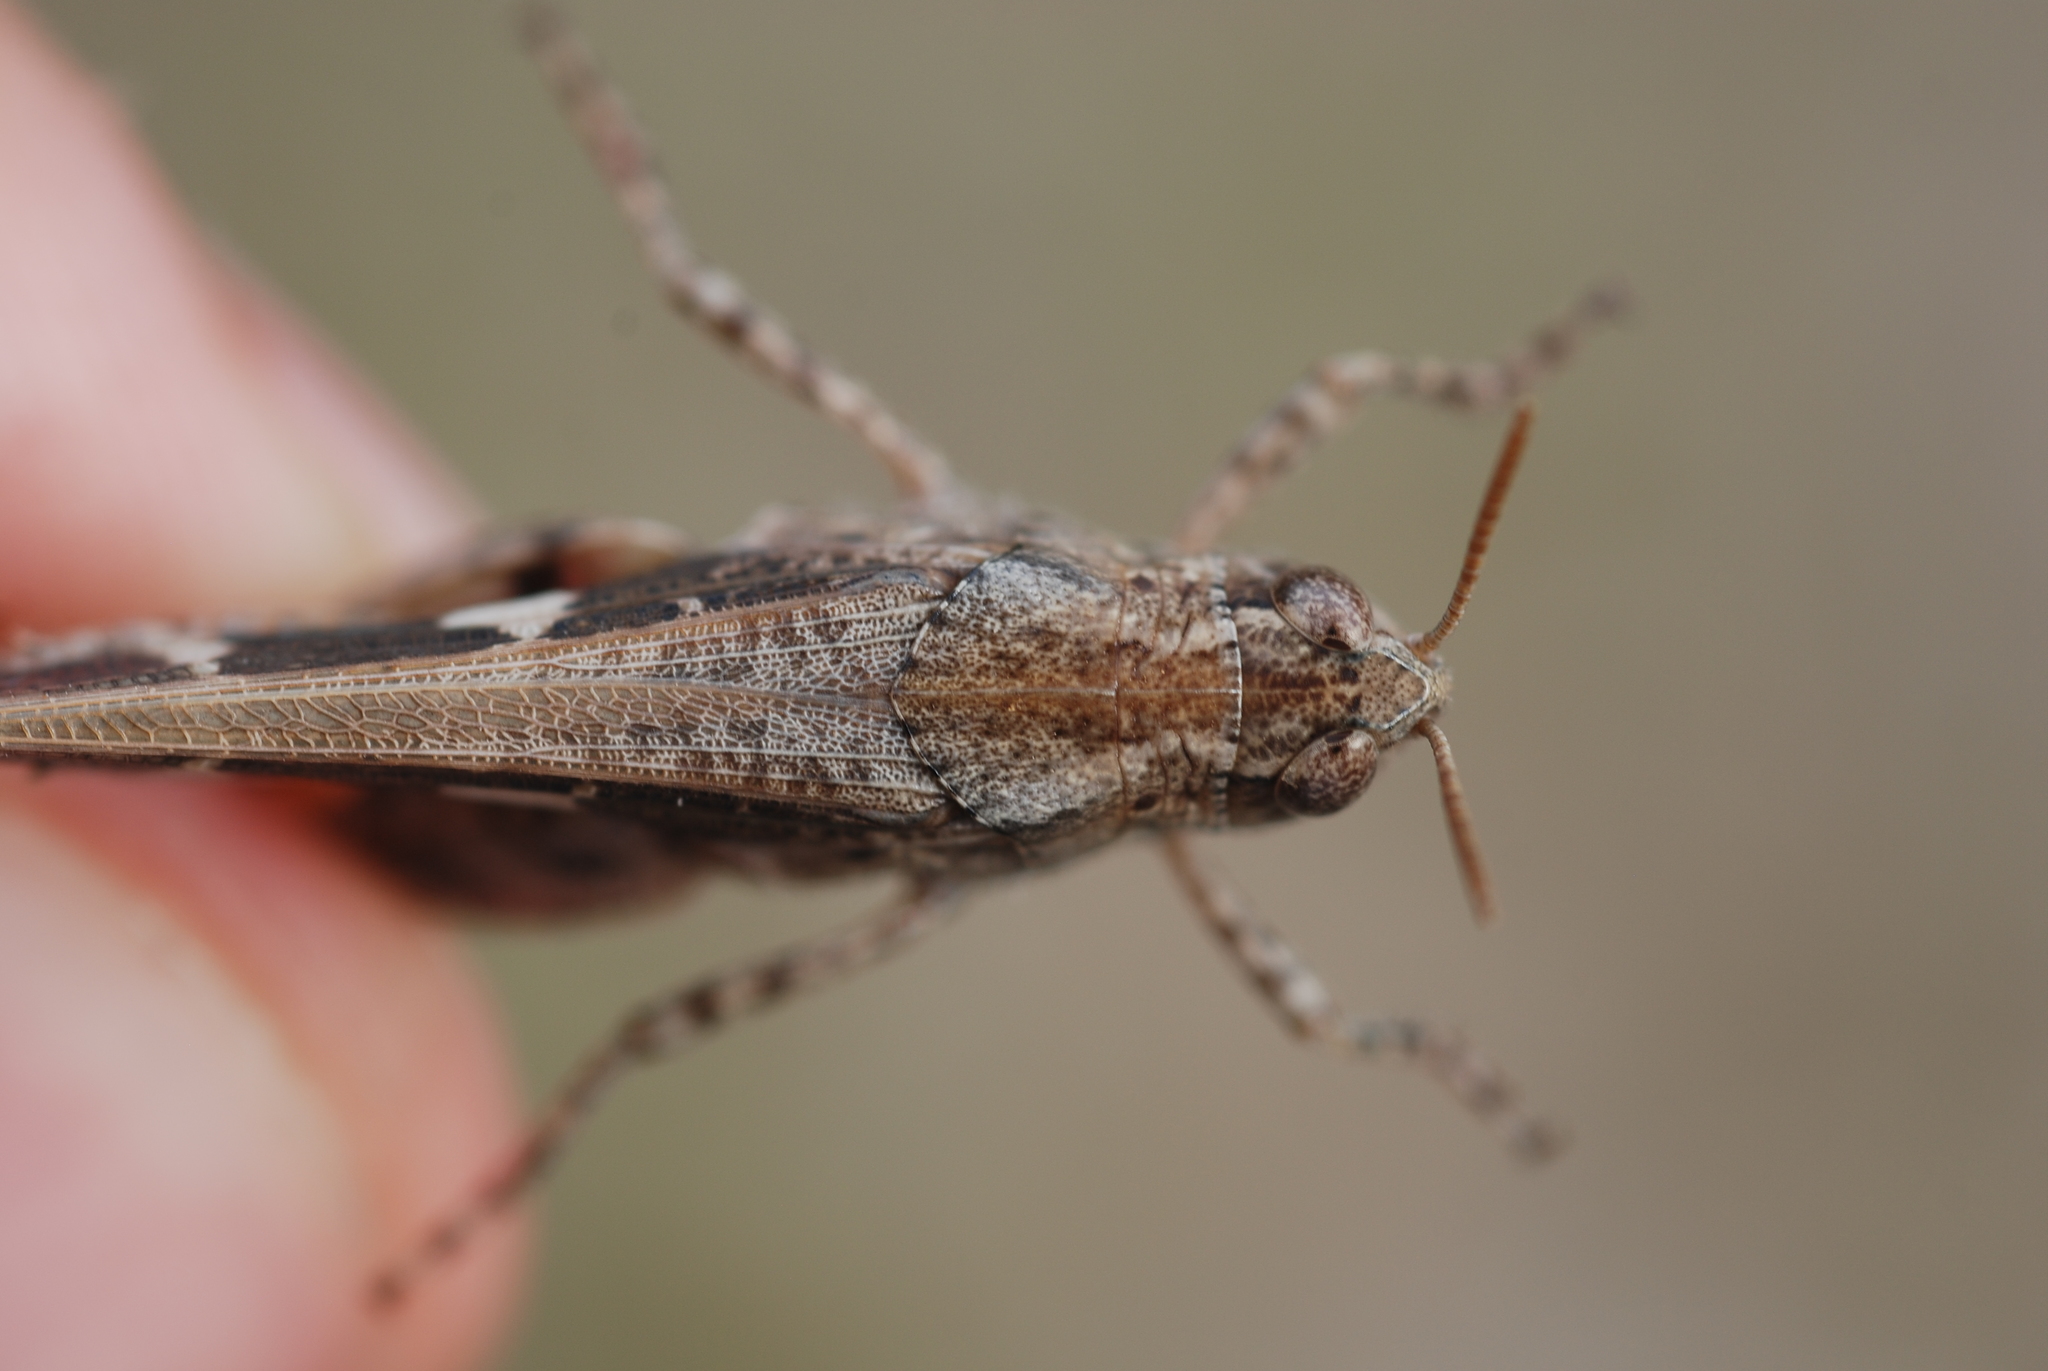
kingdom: Animalia
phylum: Arthropoda
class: Insecta
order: Orthoptera
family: Acrididae
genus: Aiolopus
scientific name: Aiolopus strepens
